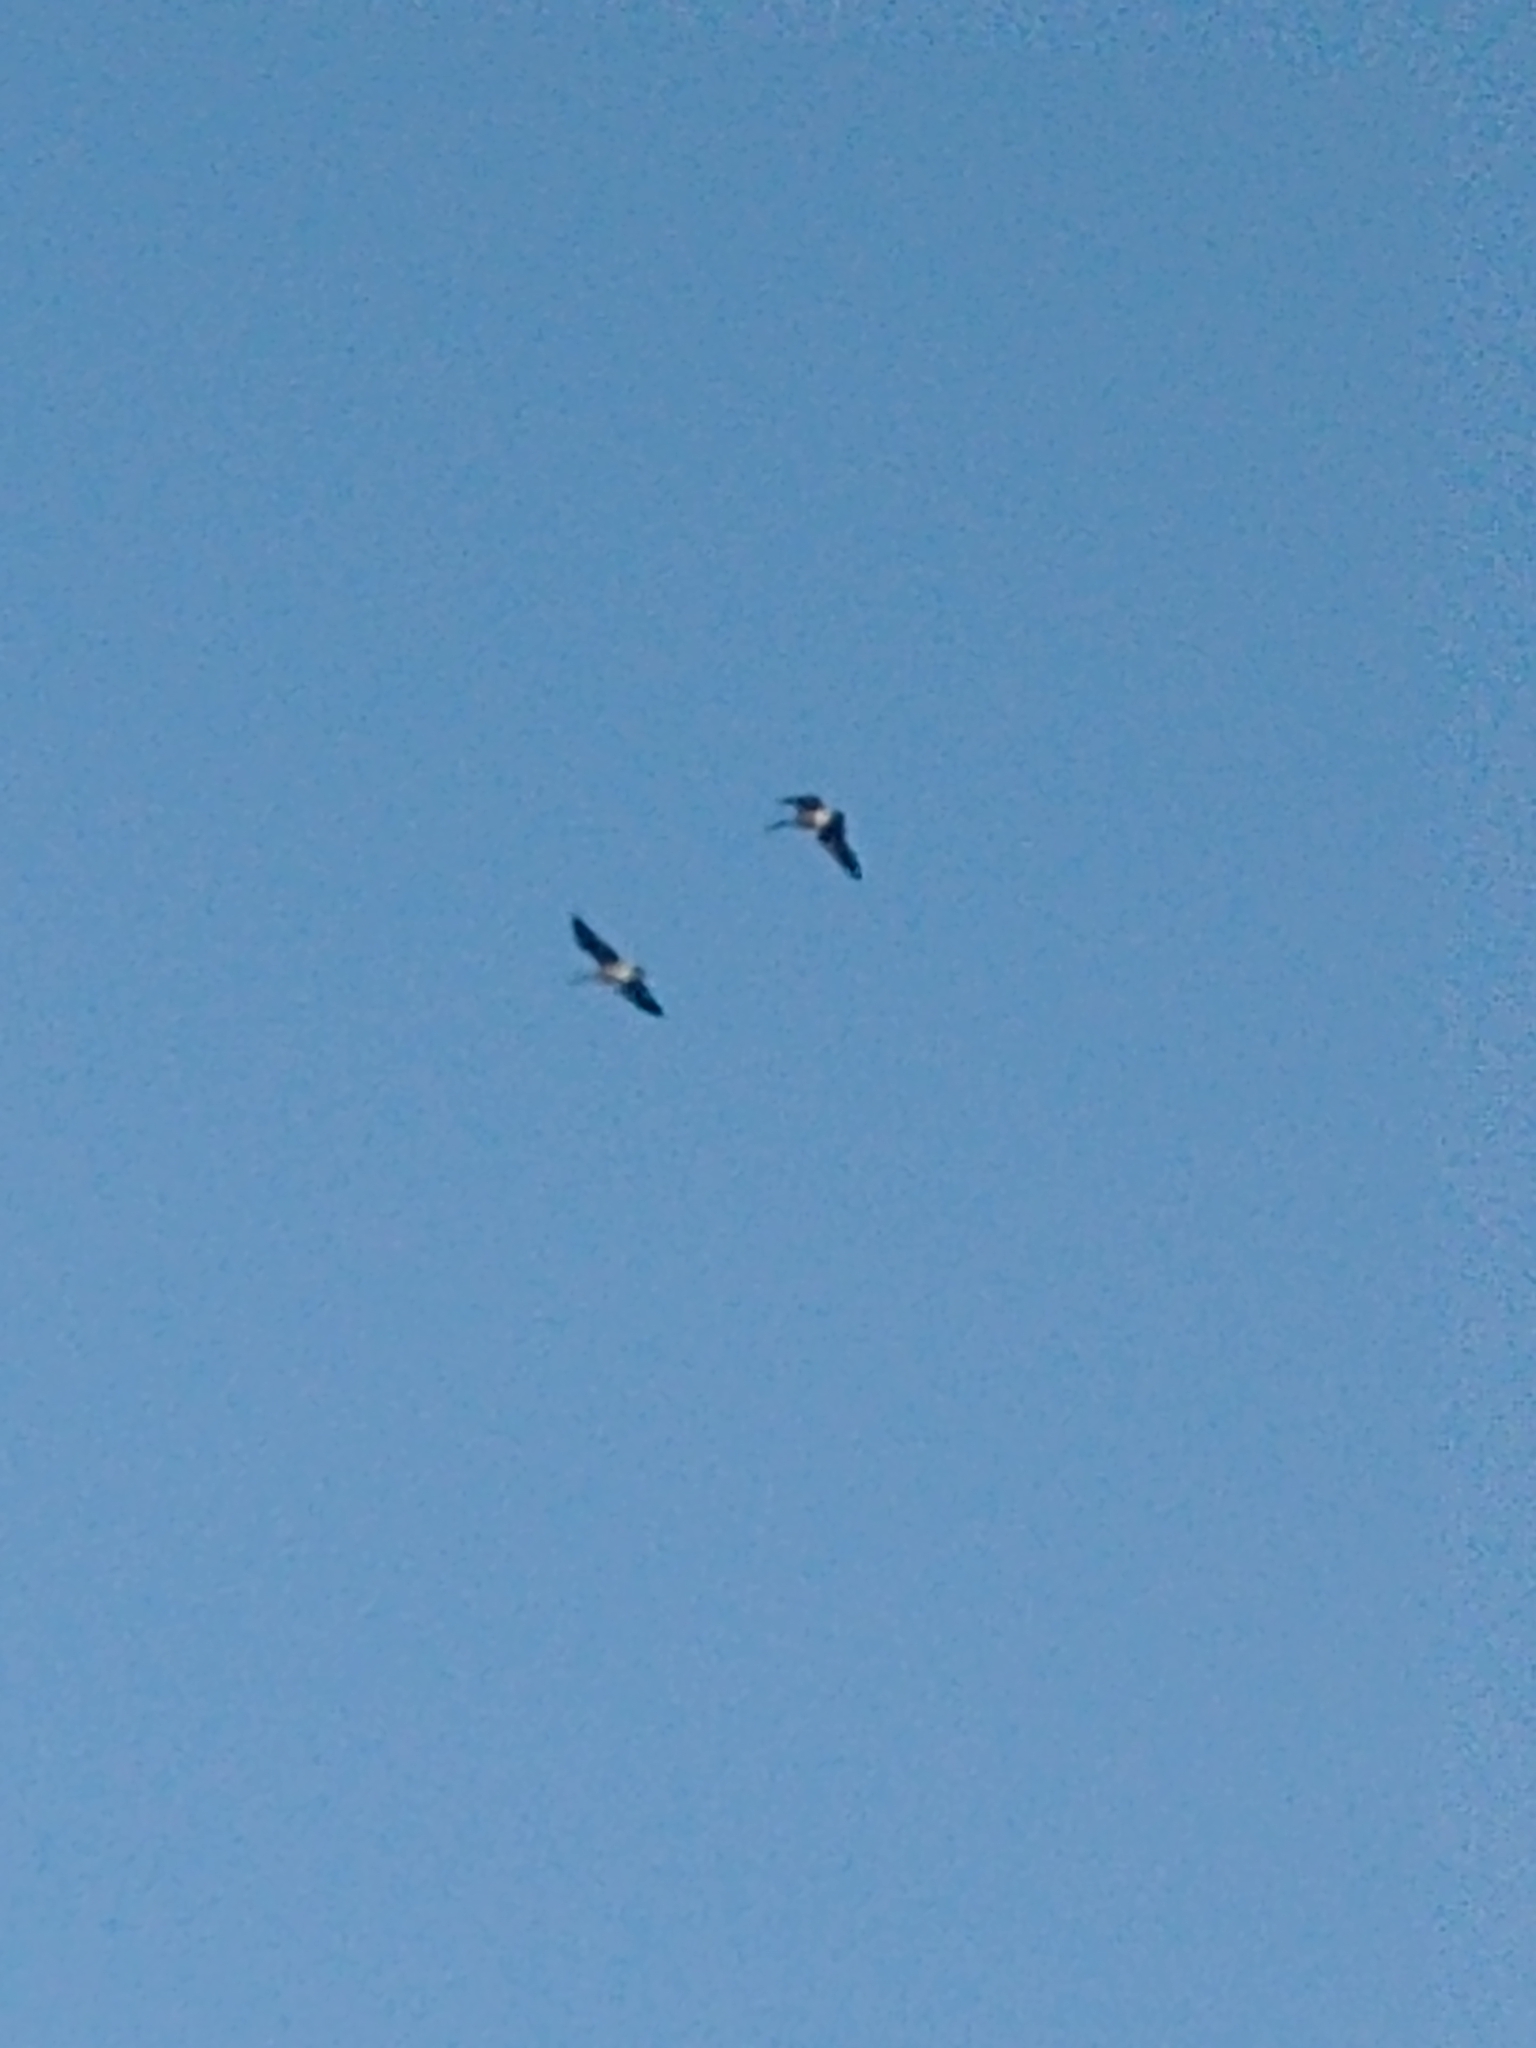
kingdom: Animalia
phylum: Chordata
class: Aves
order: Anseriformes
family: Anatidae
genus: Branta
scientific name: Branta canadensis
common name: Canada goose
